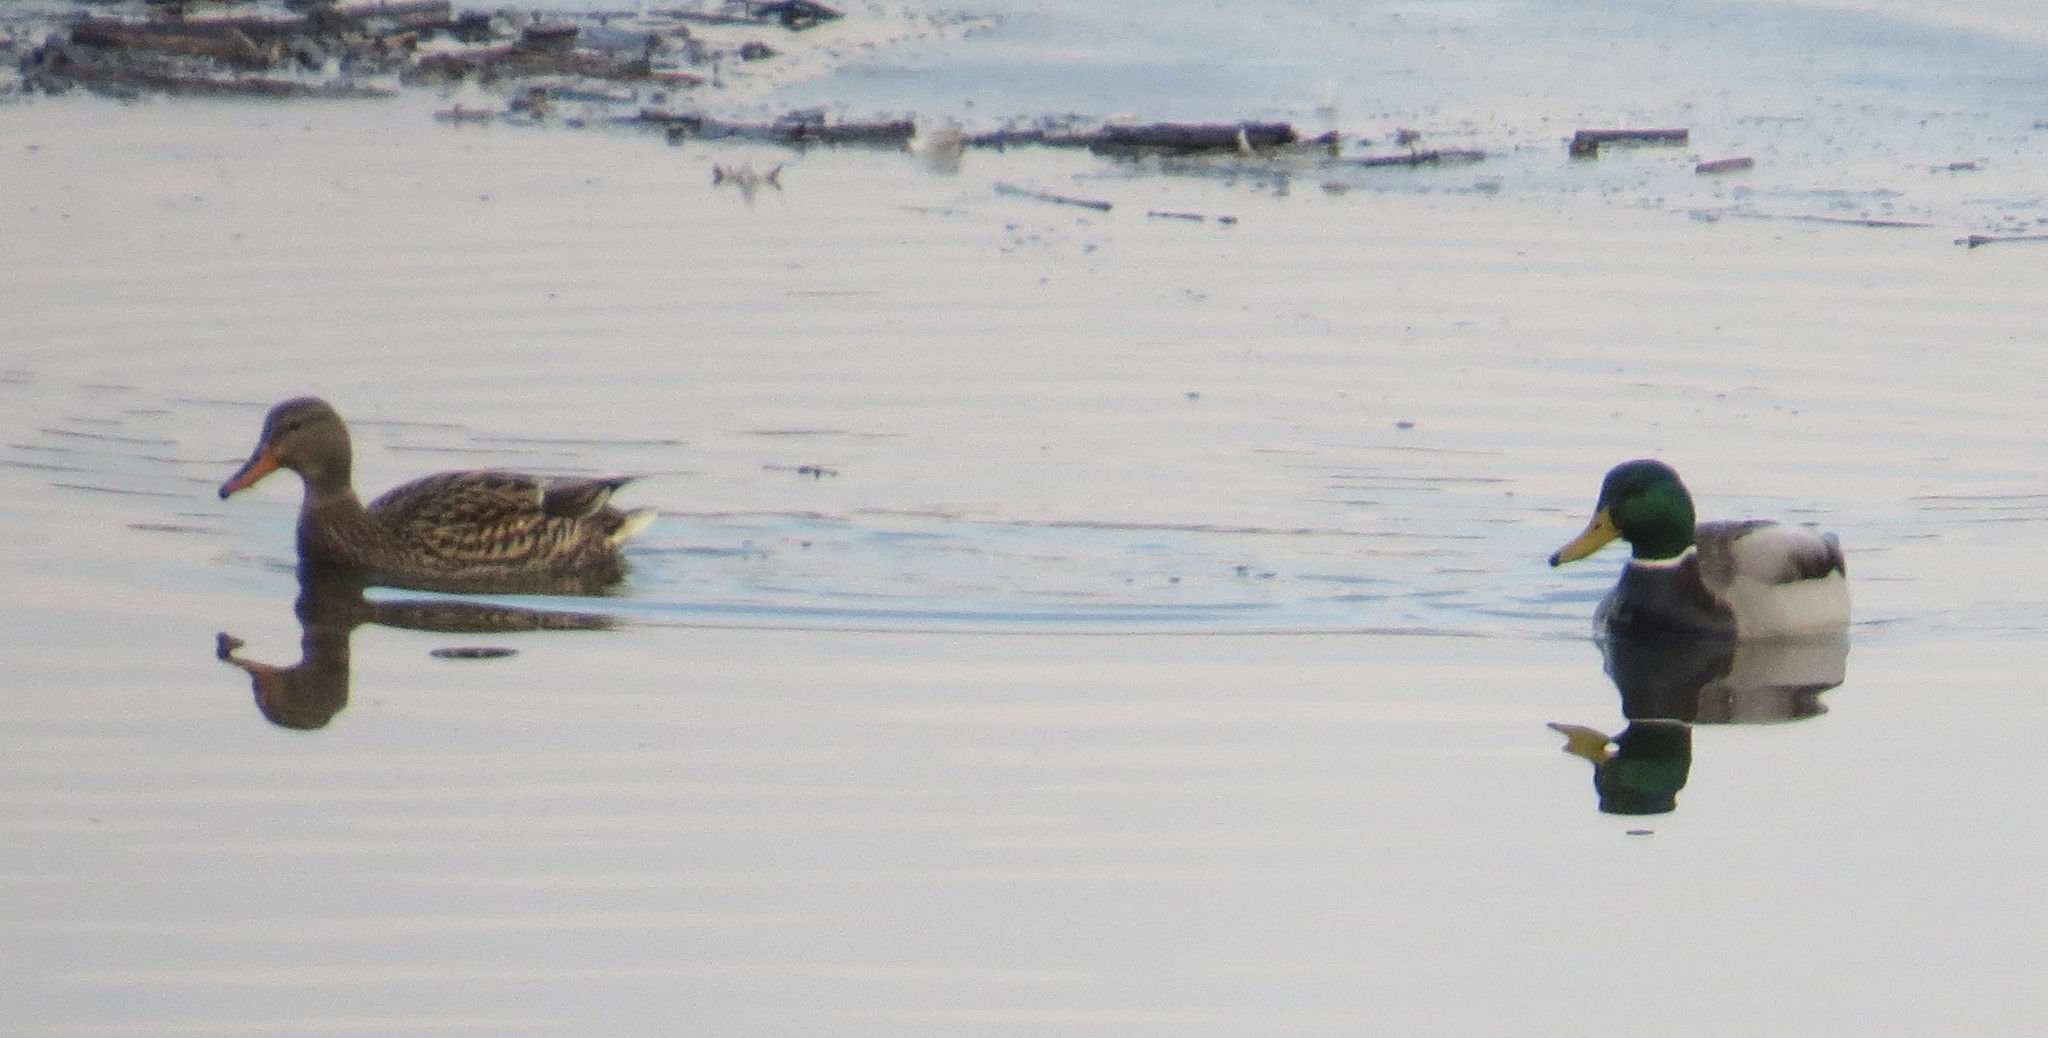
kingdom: Animalia
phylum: Chordata
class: Aves
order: Anseriformes
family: Anatidae
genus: Anas
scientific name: Anas platyrhynchos
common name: Mallard
